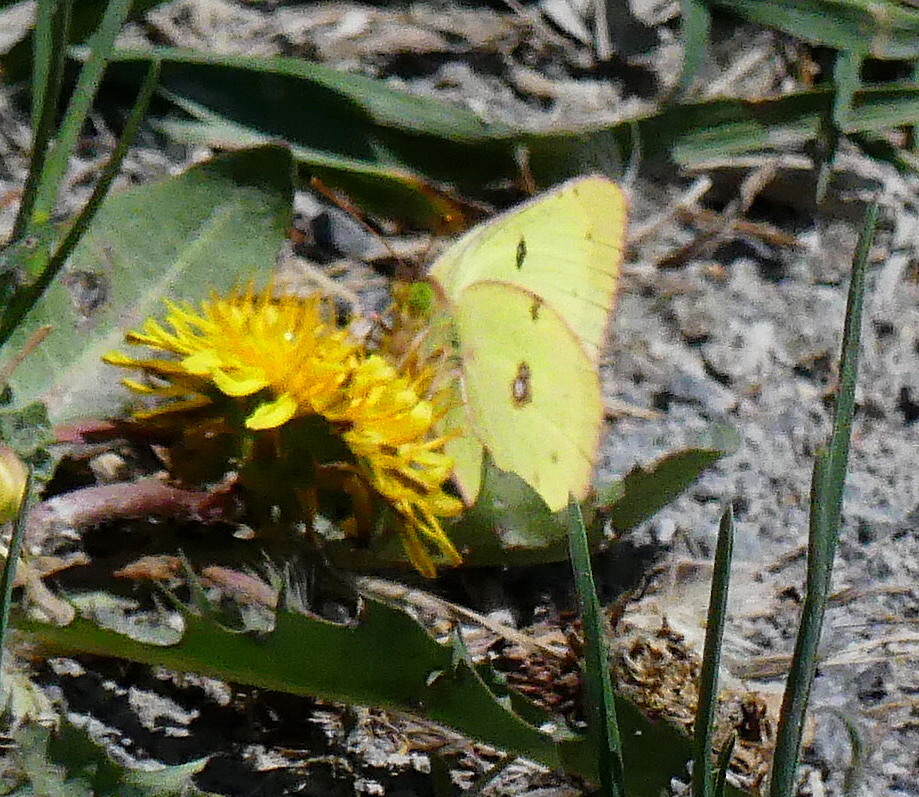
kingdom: Animalia
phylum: Arthropoda
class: Insecta
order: Lepidoptera
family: Pieridae
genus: Colias
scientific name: Colias philodice
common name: Clouded sulphur
